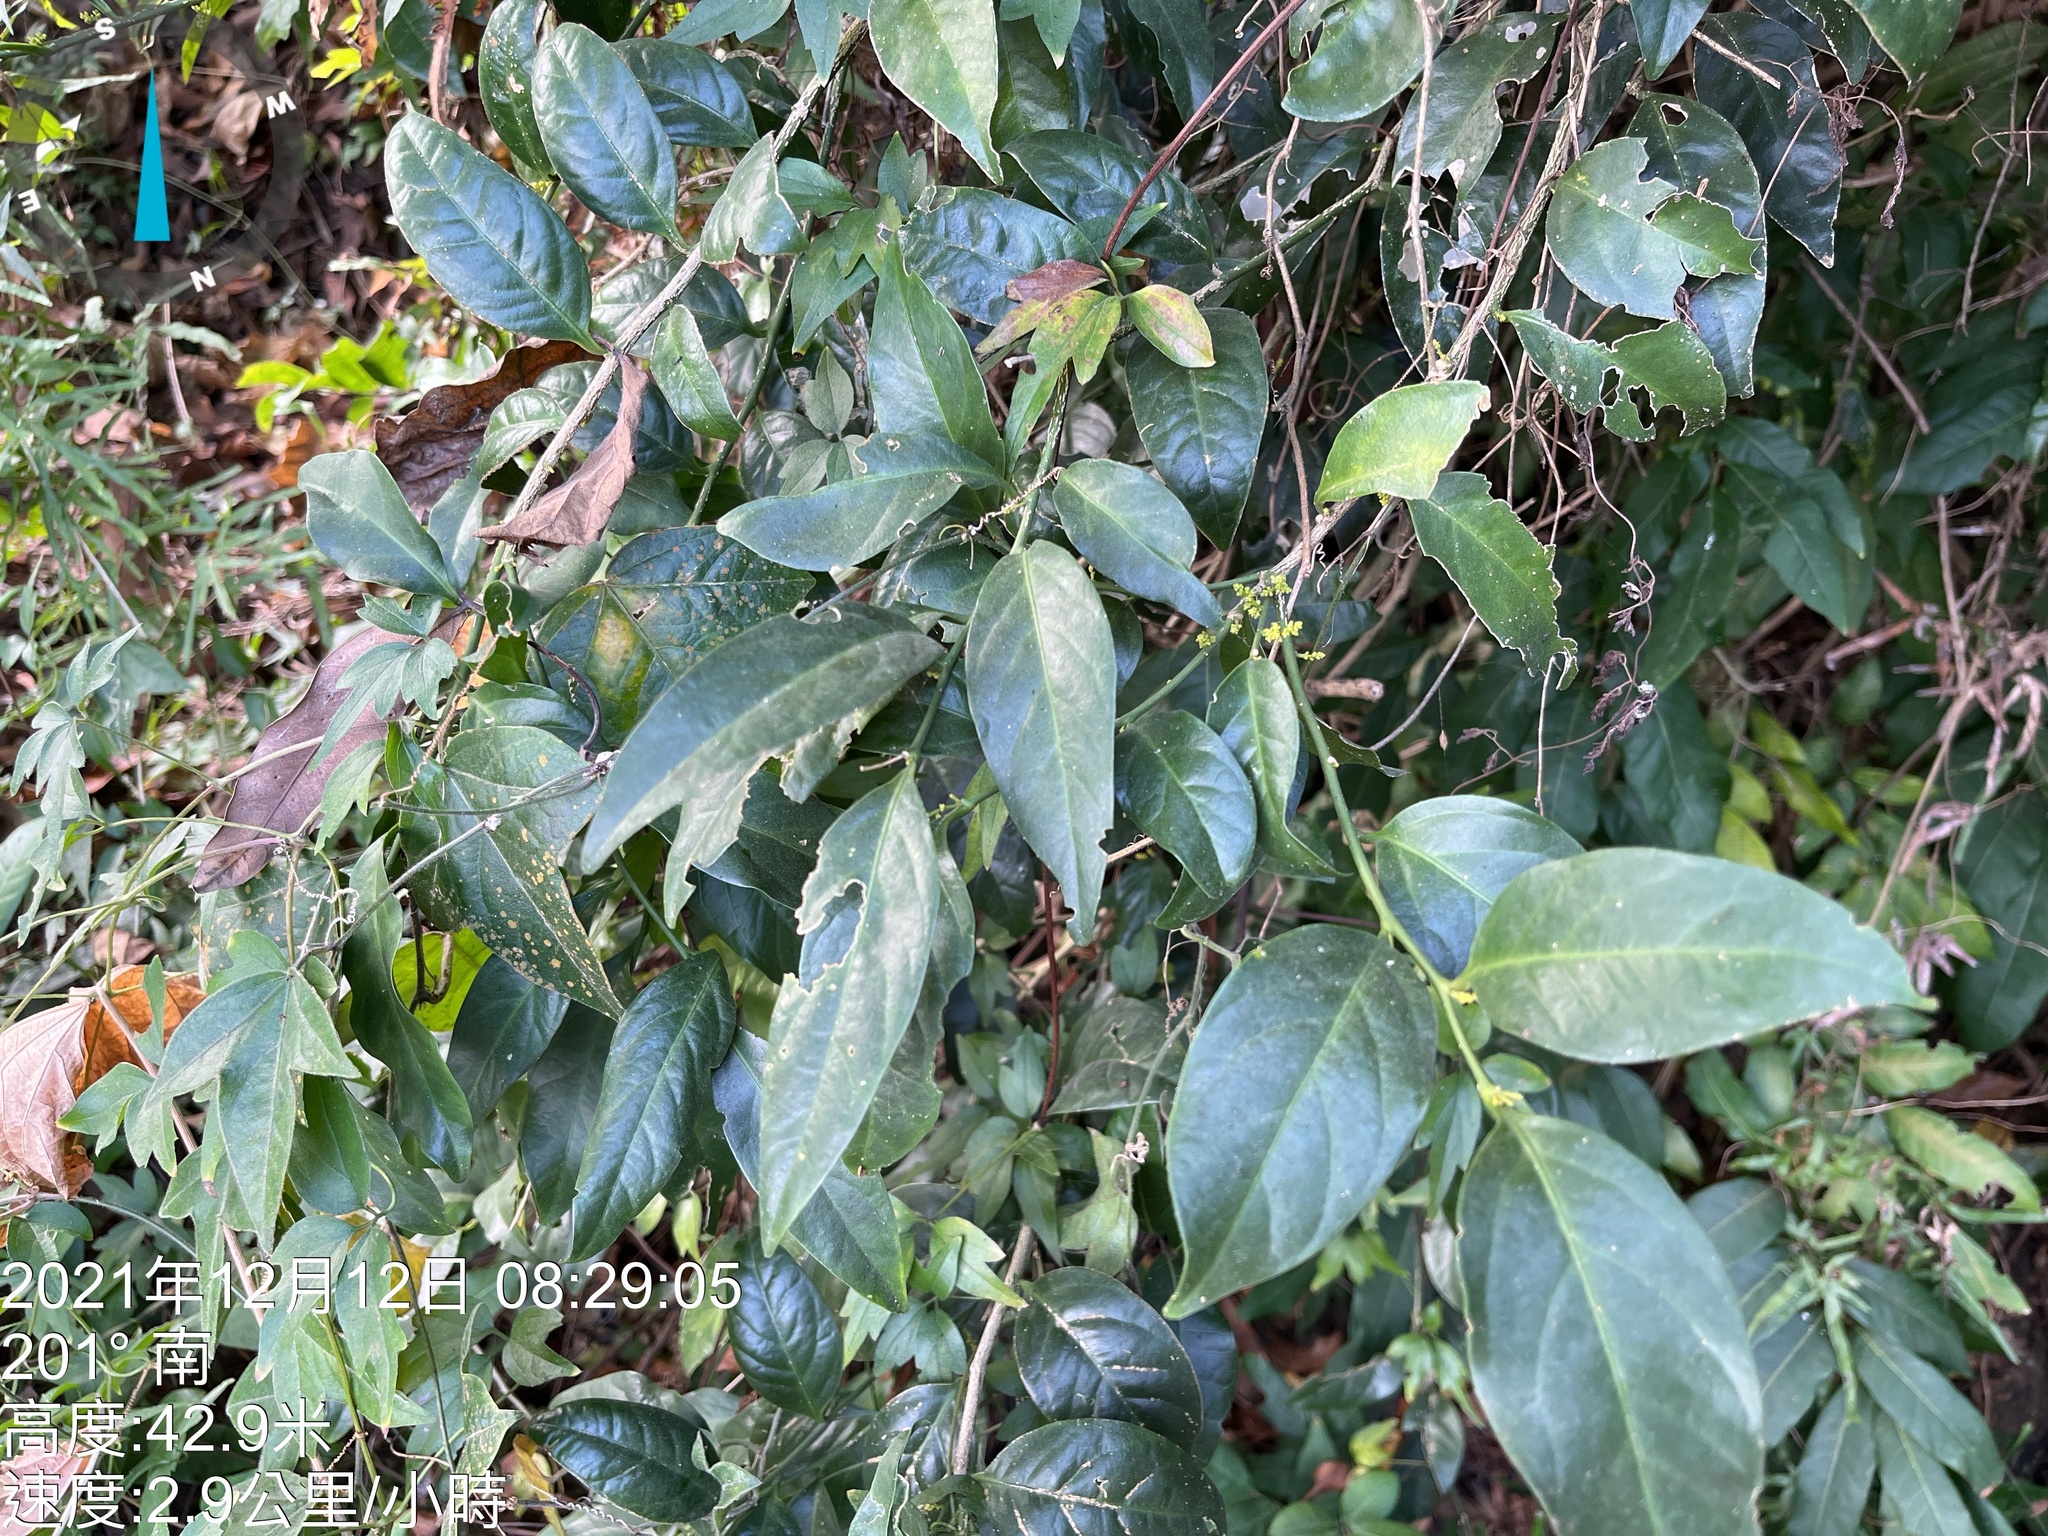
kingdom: Plantae
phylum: Tracheophyta
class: Magnoliopsida
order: Santalales
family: Opiliaceae
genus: Champereia
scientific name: Champereia manillana
